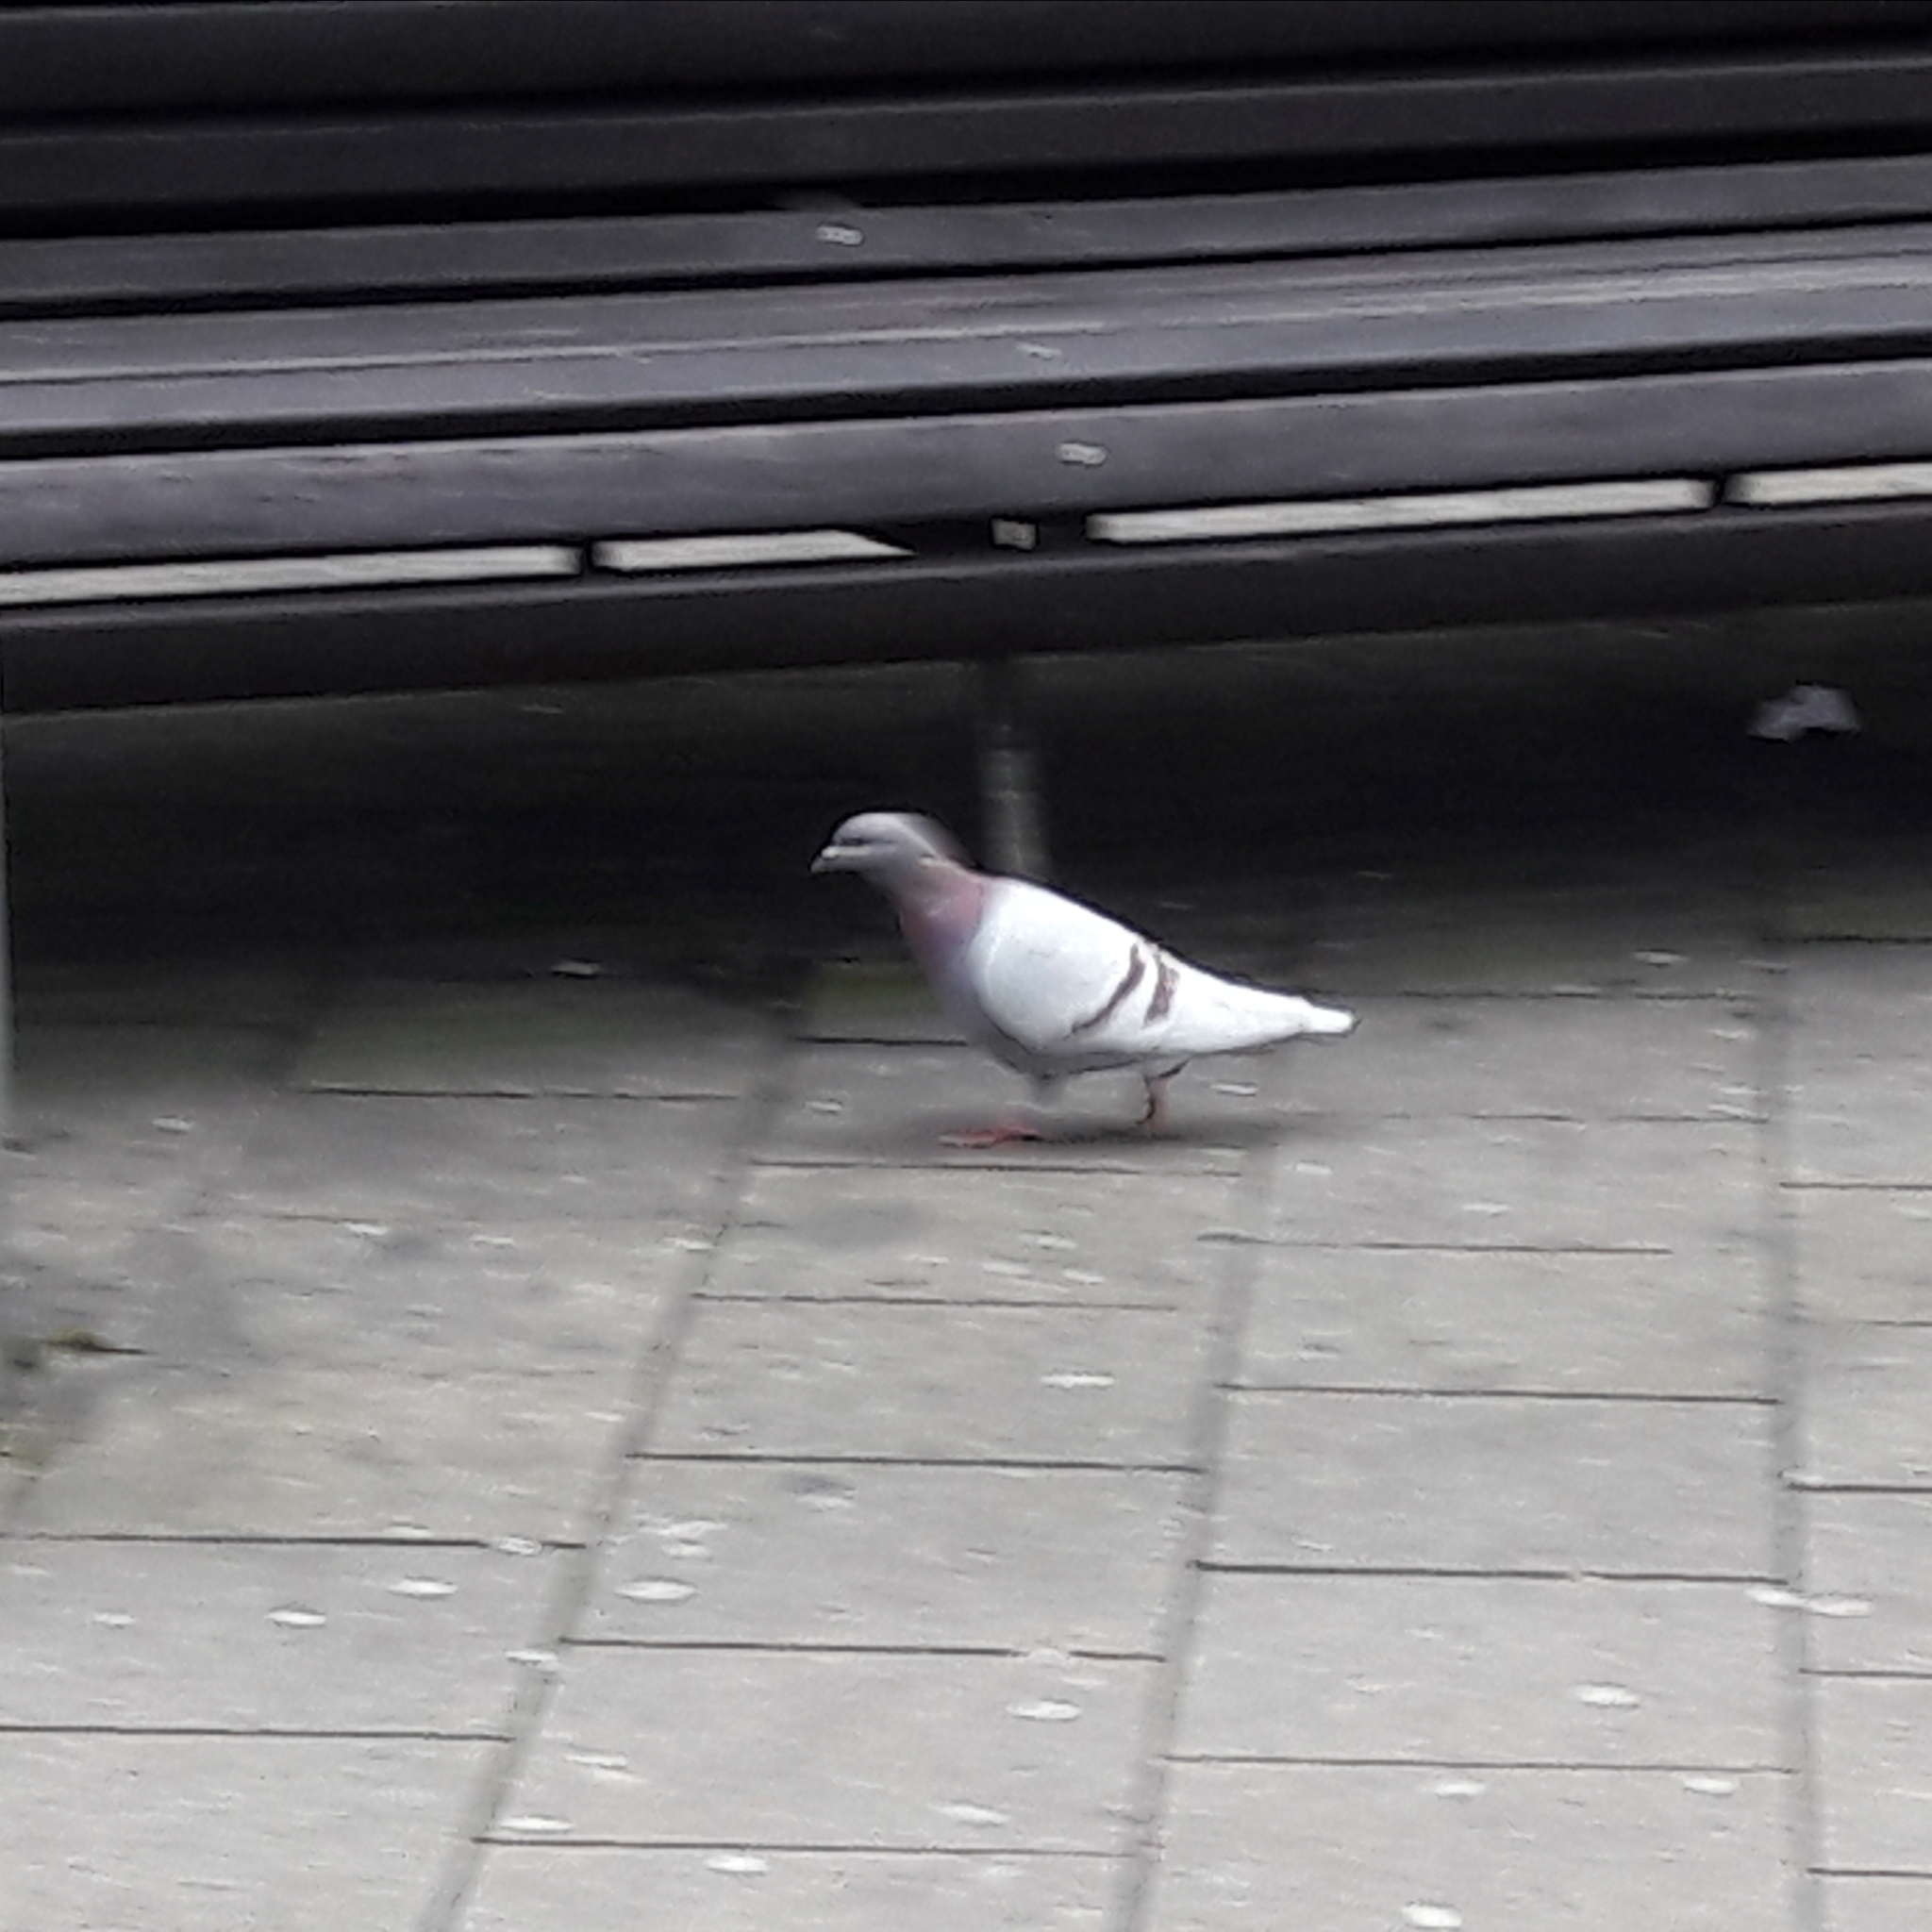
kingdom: Animalia
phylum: Chordata
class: Aves
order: Columbiformes
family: Columbidae
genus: Columba
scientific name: Columba livia
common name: Rock pigeon
